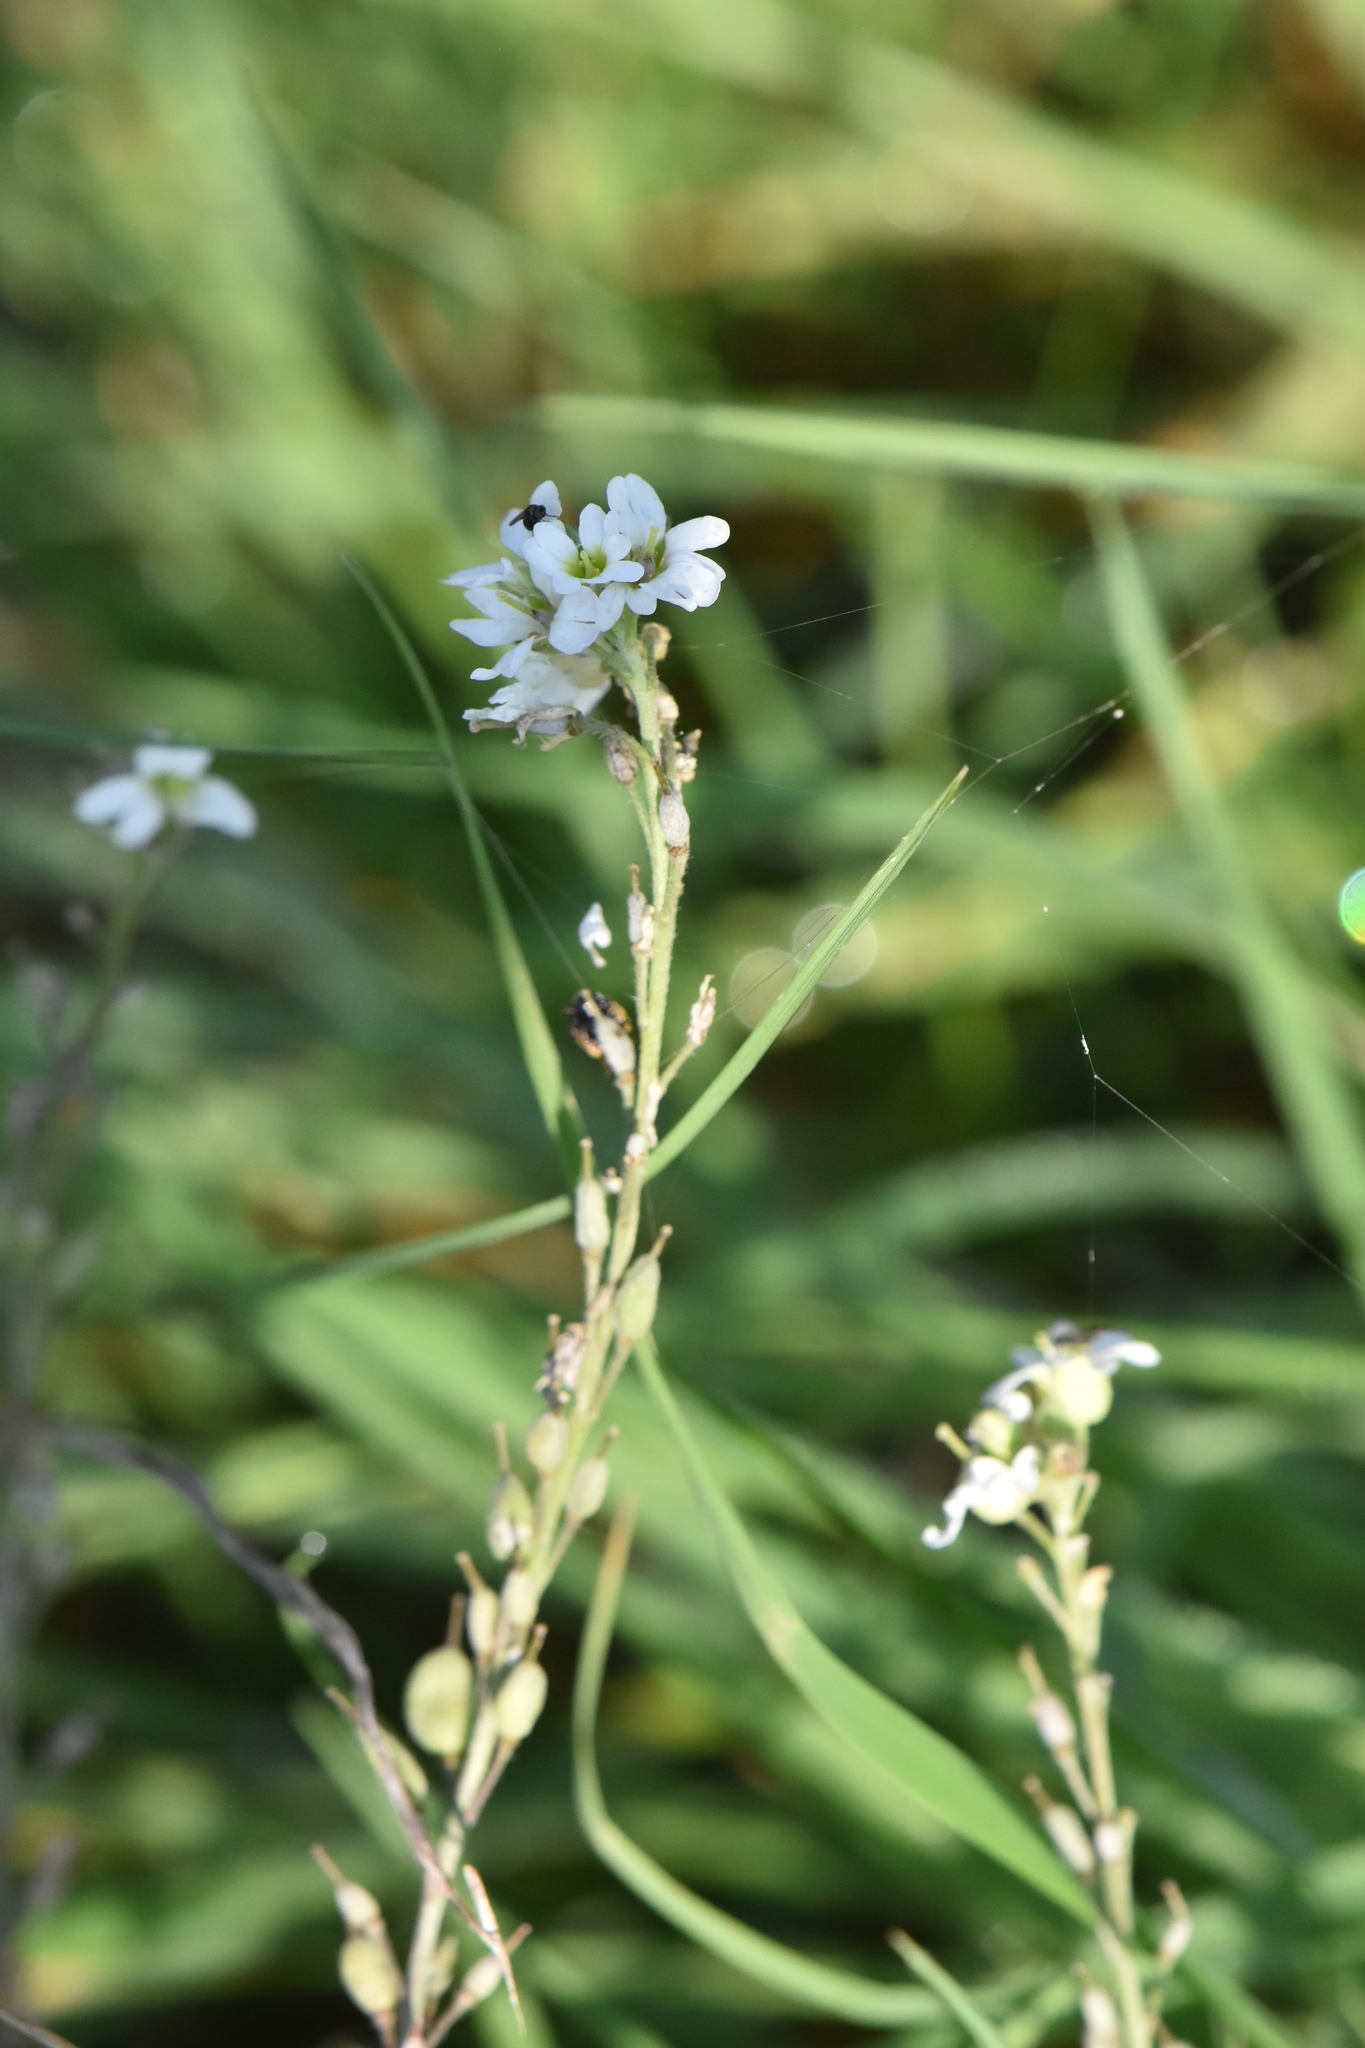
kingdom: Plantae
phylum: Tracheophyta
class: Magnoliopsida
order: Brassicales
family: Brassicaceae
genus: Berteroa
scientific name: Berteroa incana
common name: Hoary alison
